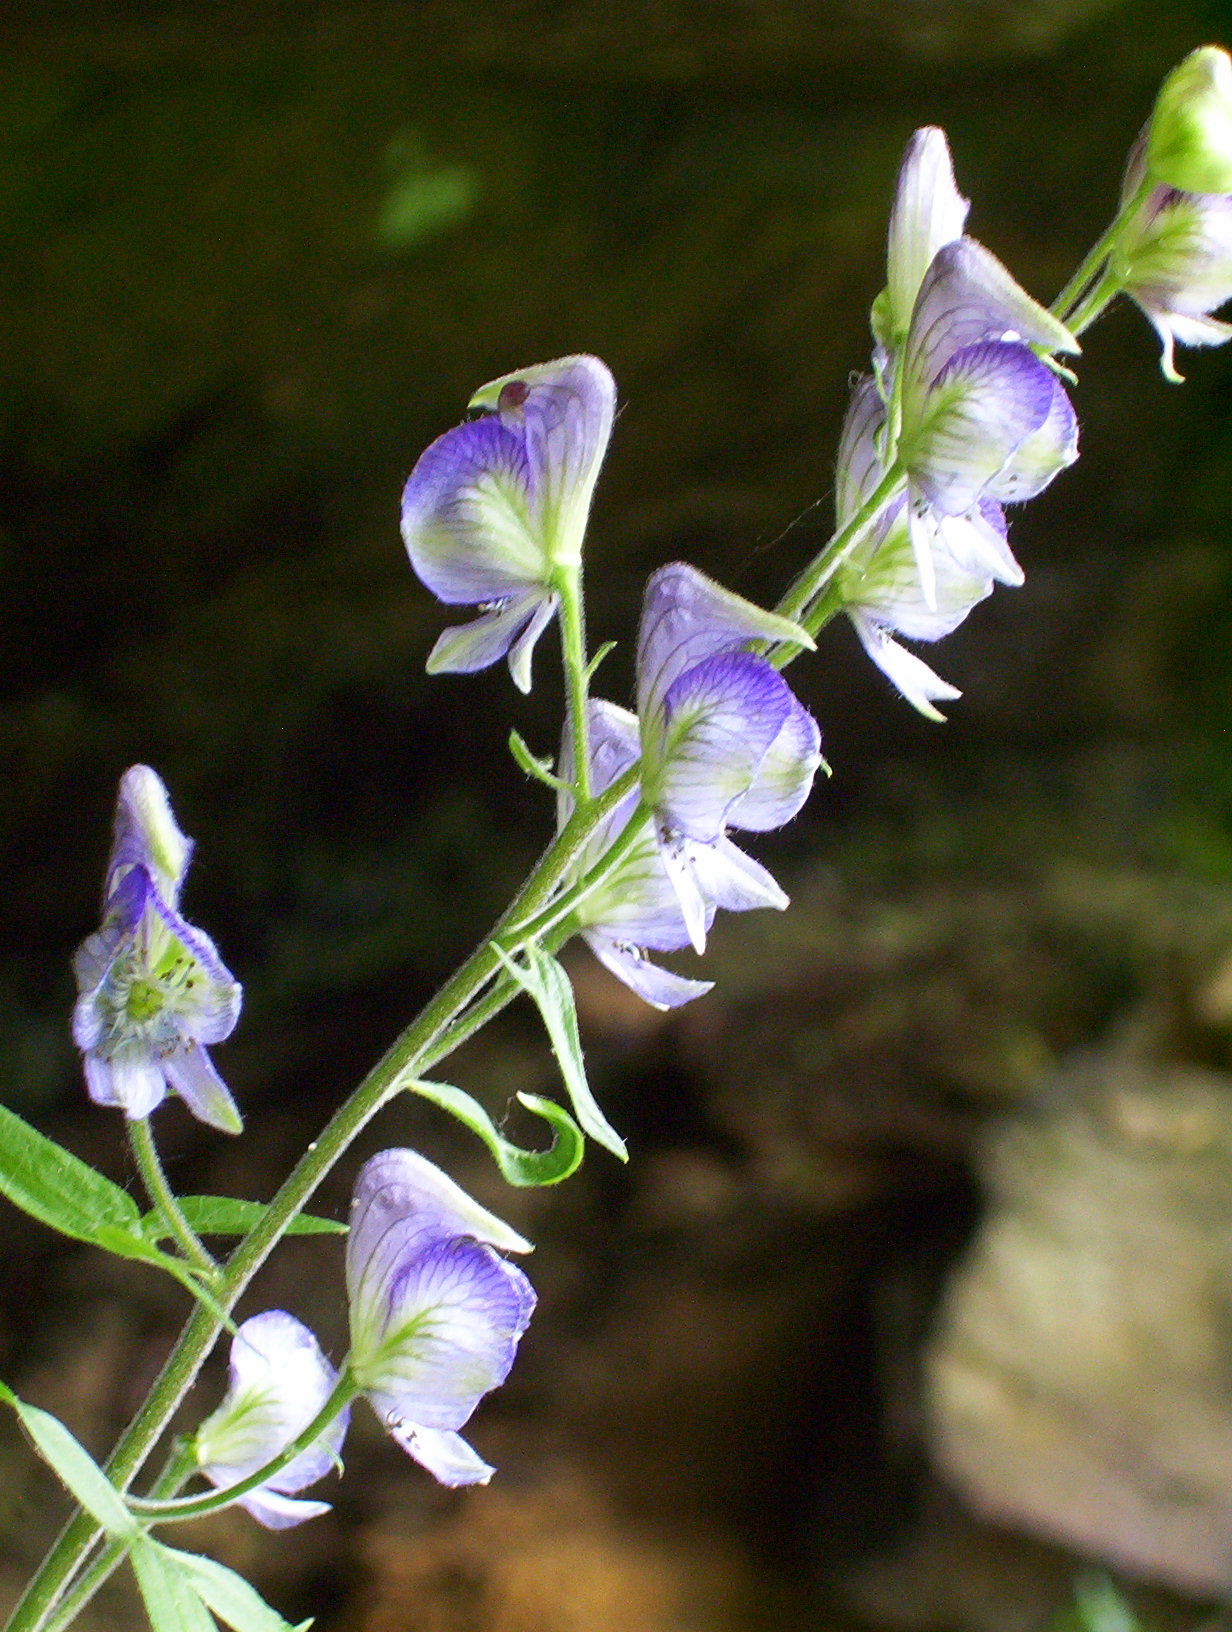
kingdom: Plantae
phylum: Tracheophyta
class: Magnoliopsida
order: Ranunculales
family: Ranunculaceae
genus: Aconitum
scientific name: Aconitum noveboracense
